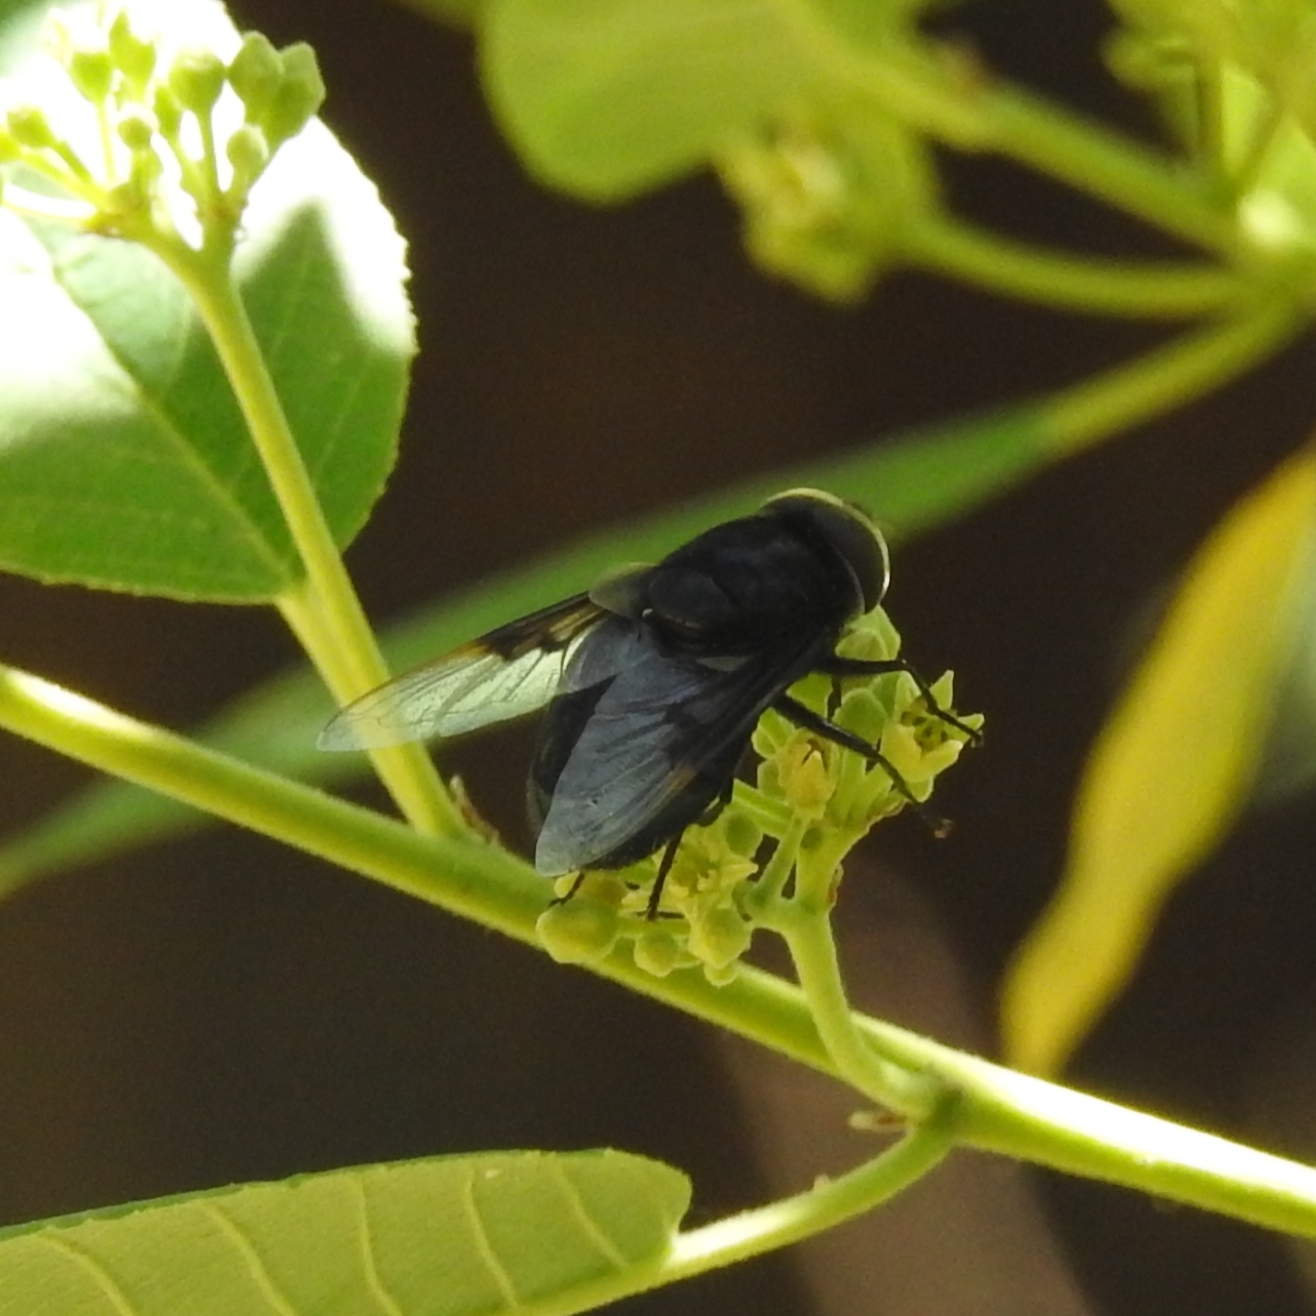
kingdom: Animalia
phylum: Arthropoda
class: Insecta
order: Diptera
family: Syrphidae
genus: Copestylum
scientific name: Copestylum mexicanum
